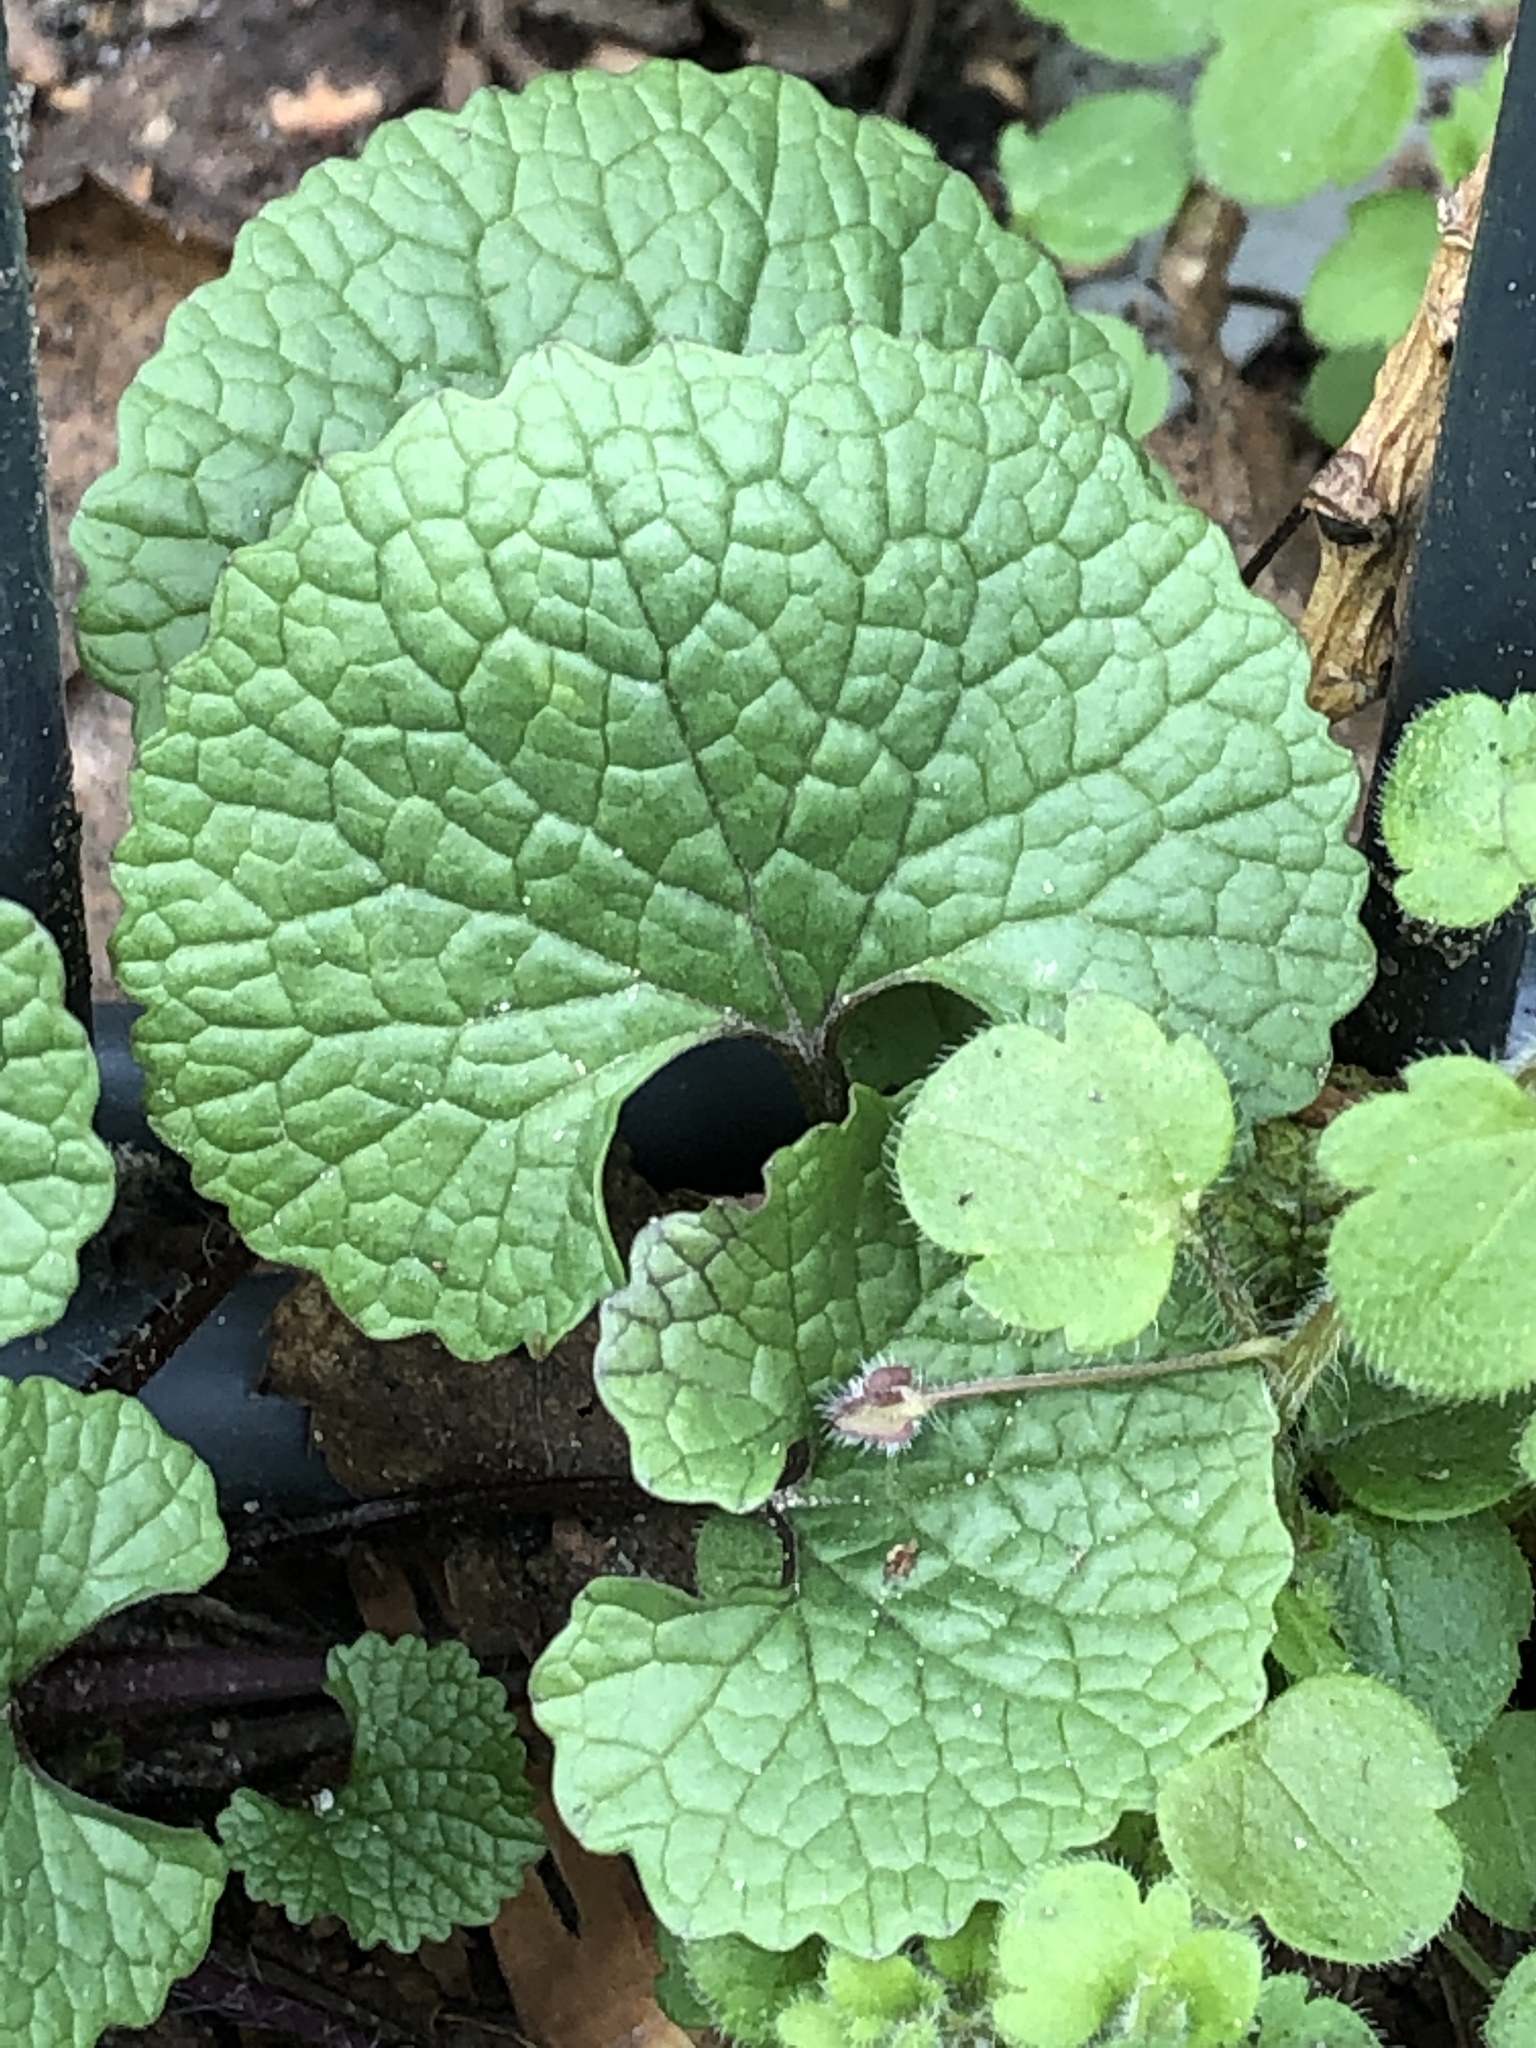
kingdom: Plantae
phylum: Tracheophyta
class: Magnoliopsida
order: Brassicales
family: Brassicaceae
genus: Alliaria
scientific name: Alliaria petiolata
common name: Garlic mustard
